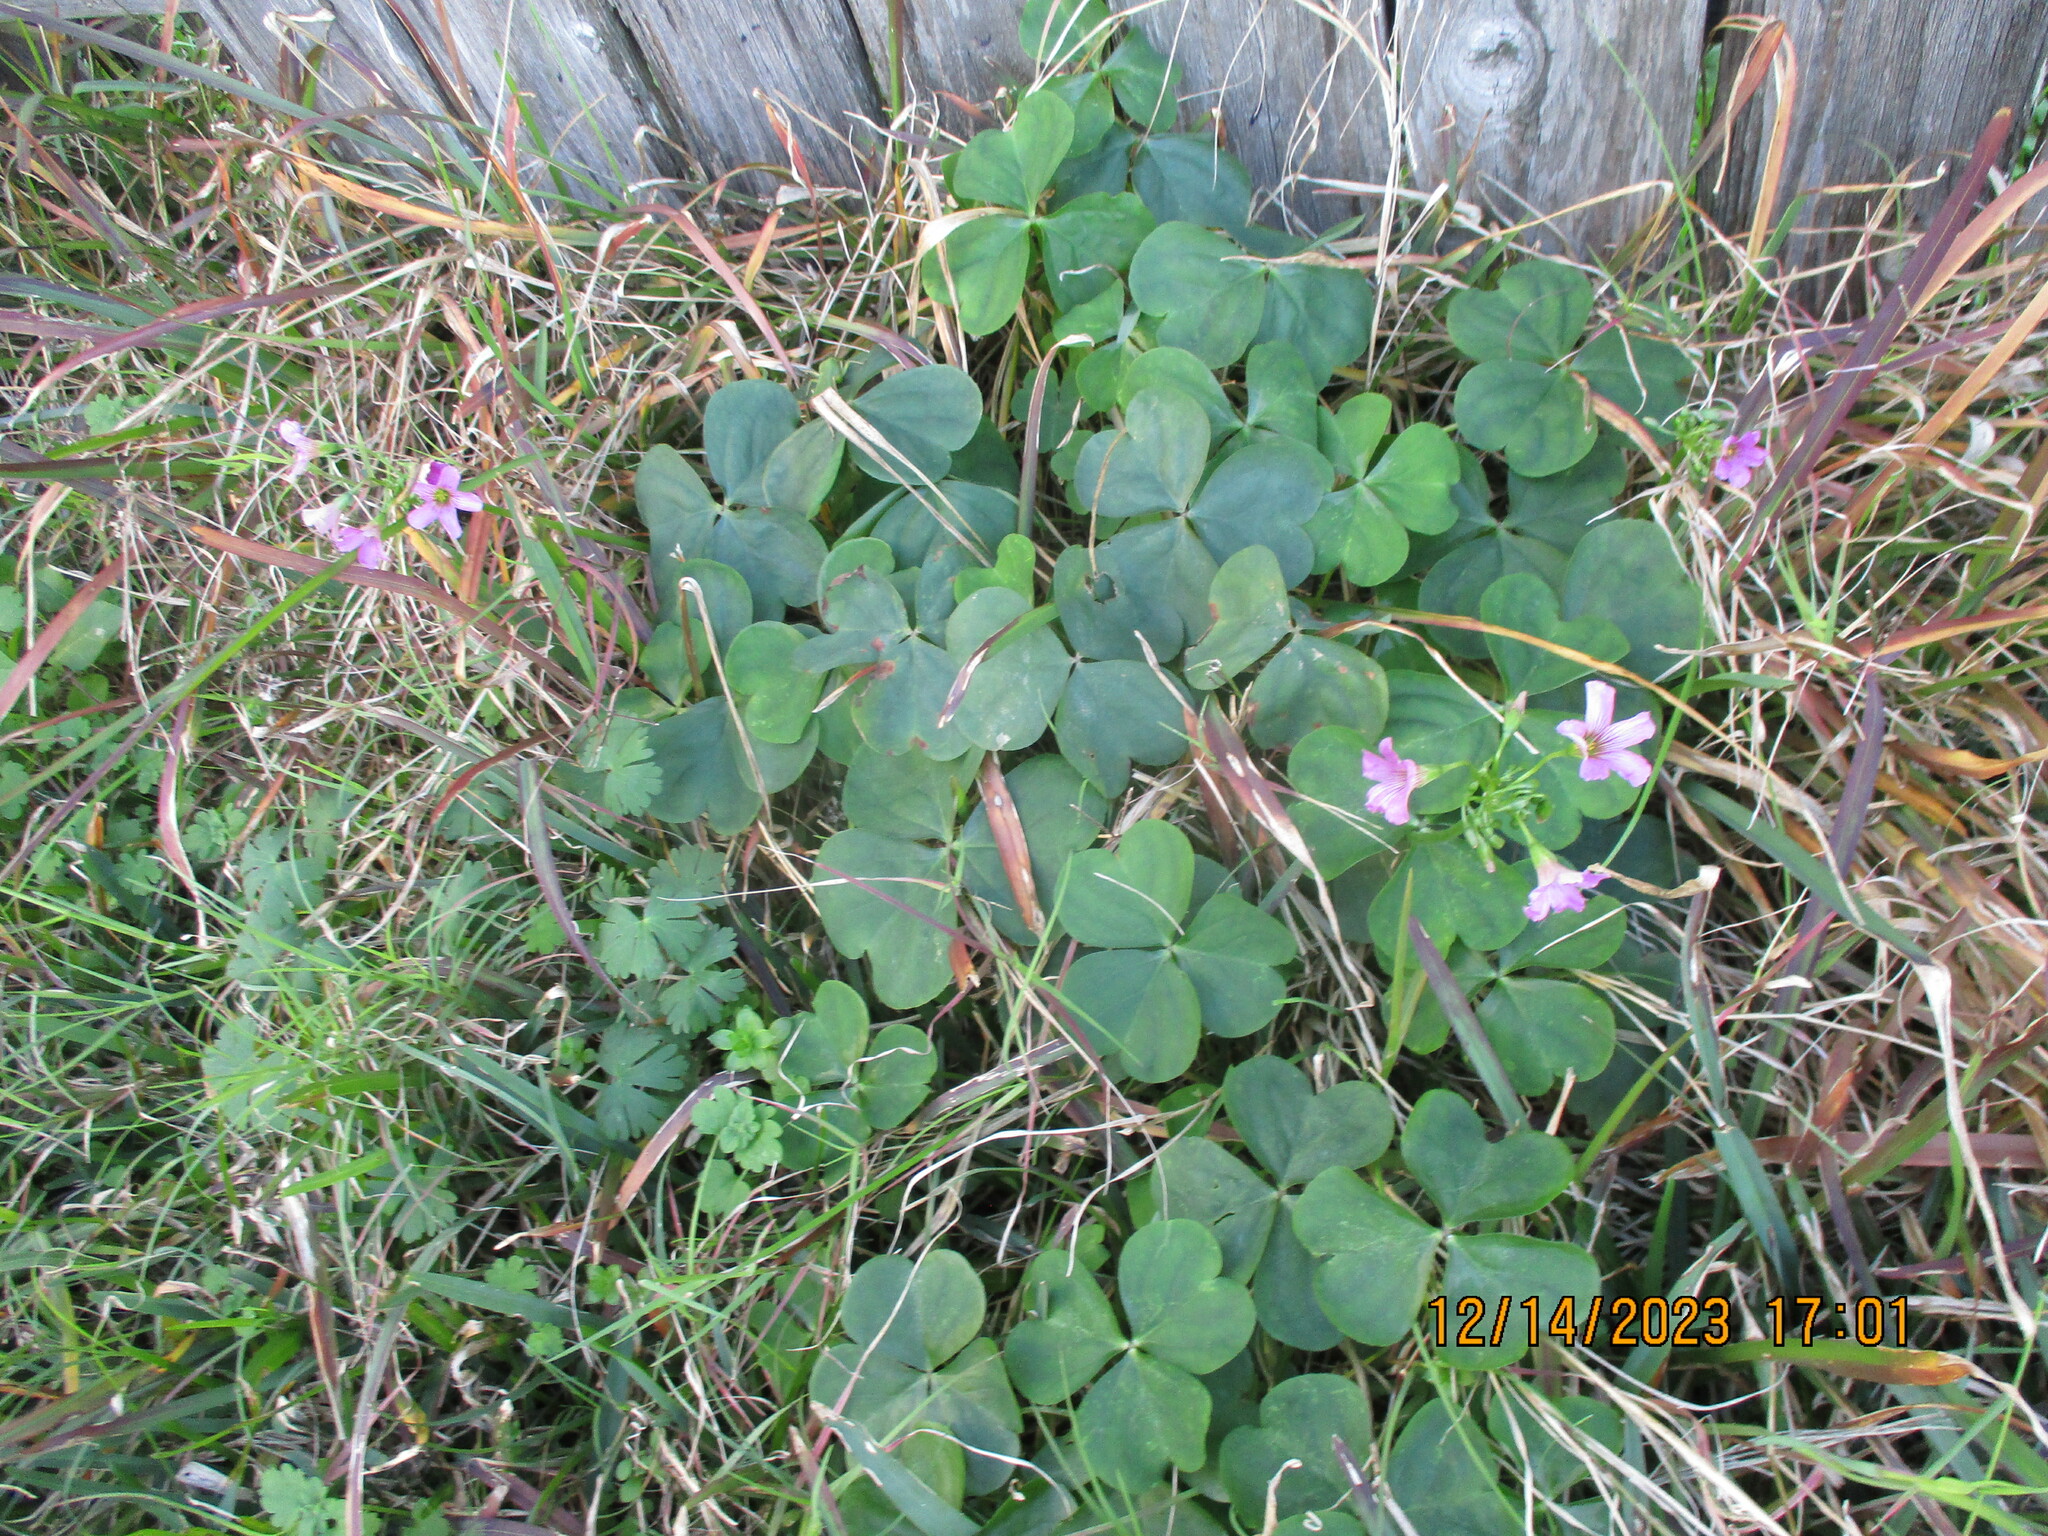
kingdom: Plantae
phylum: Tracheophyta
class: Magnoliopsida
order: Oxalidales
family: Oxalidaceae
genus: Oxalis
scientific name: Oxalis debilis
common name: Large-flowered pink-sorrel
